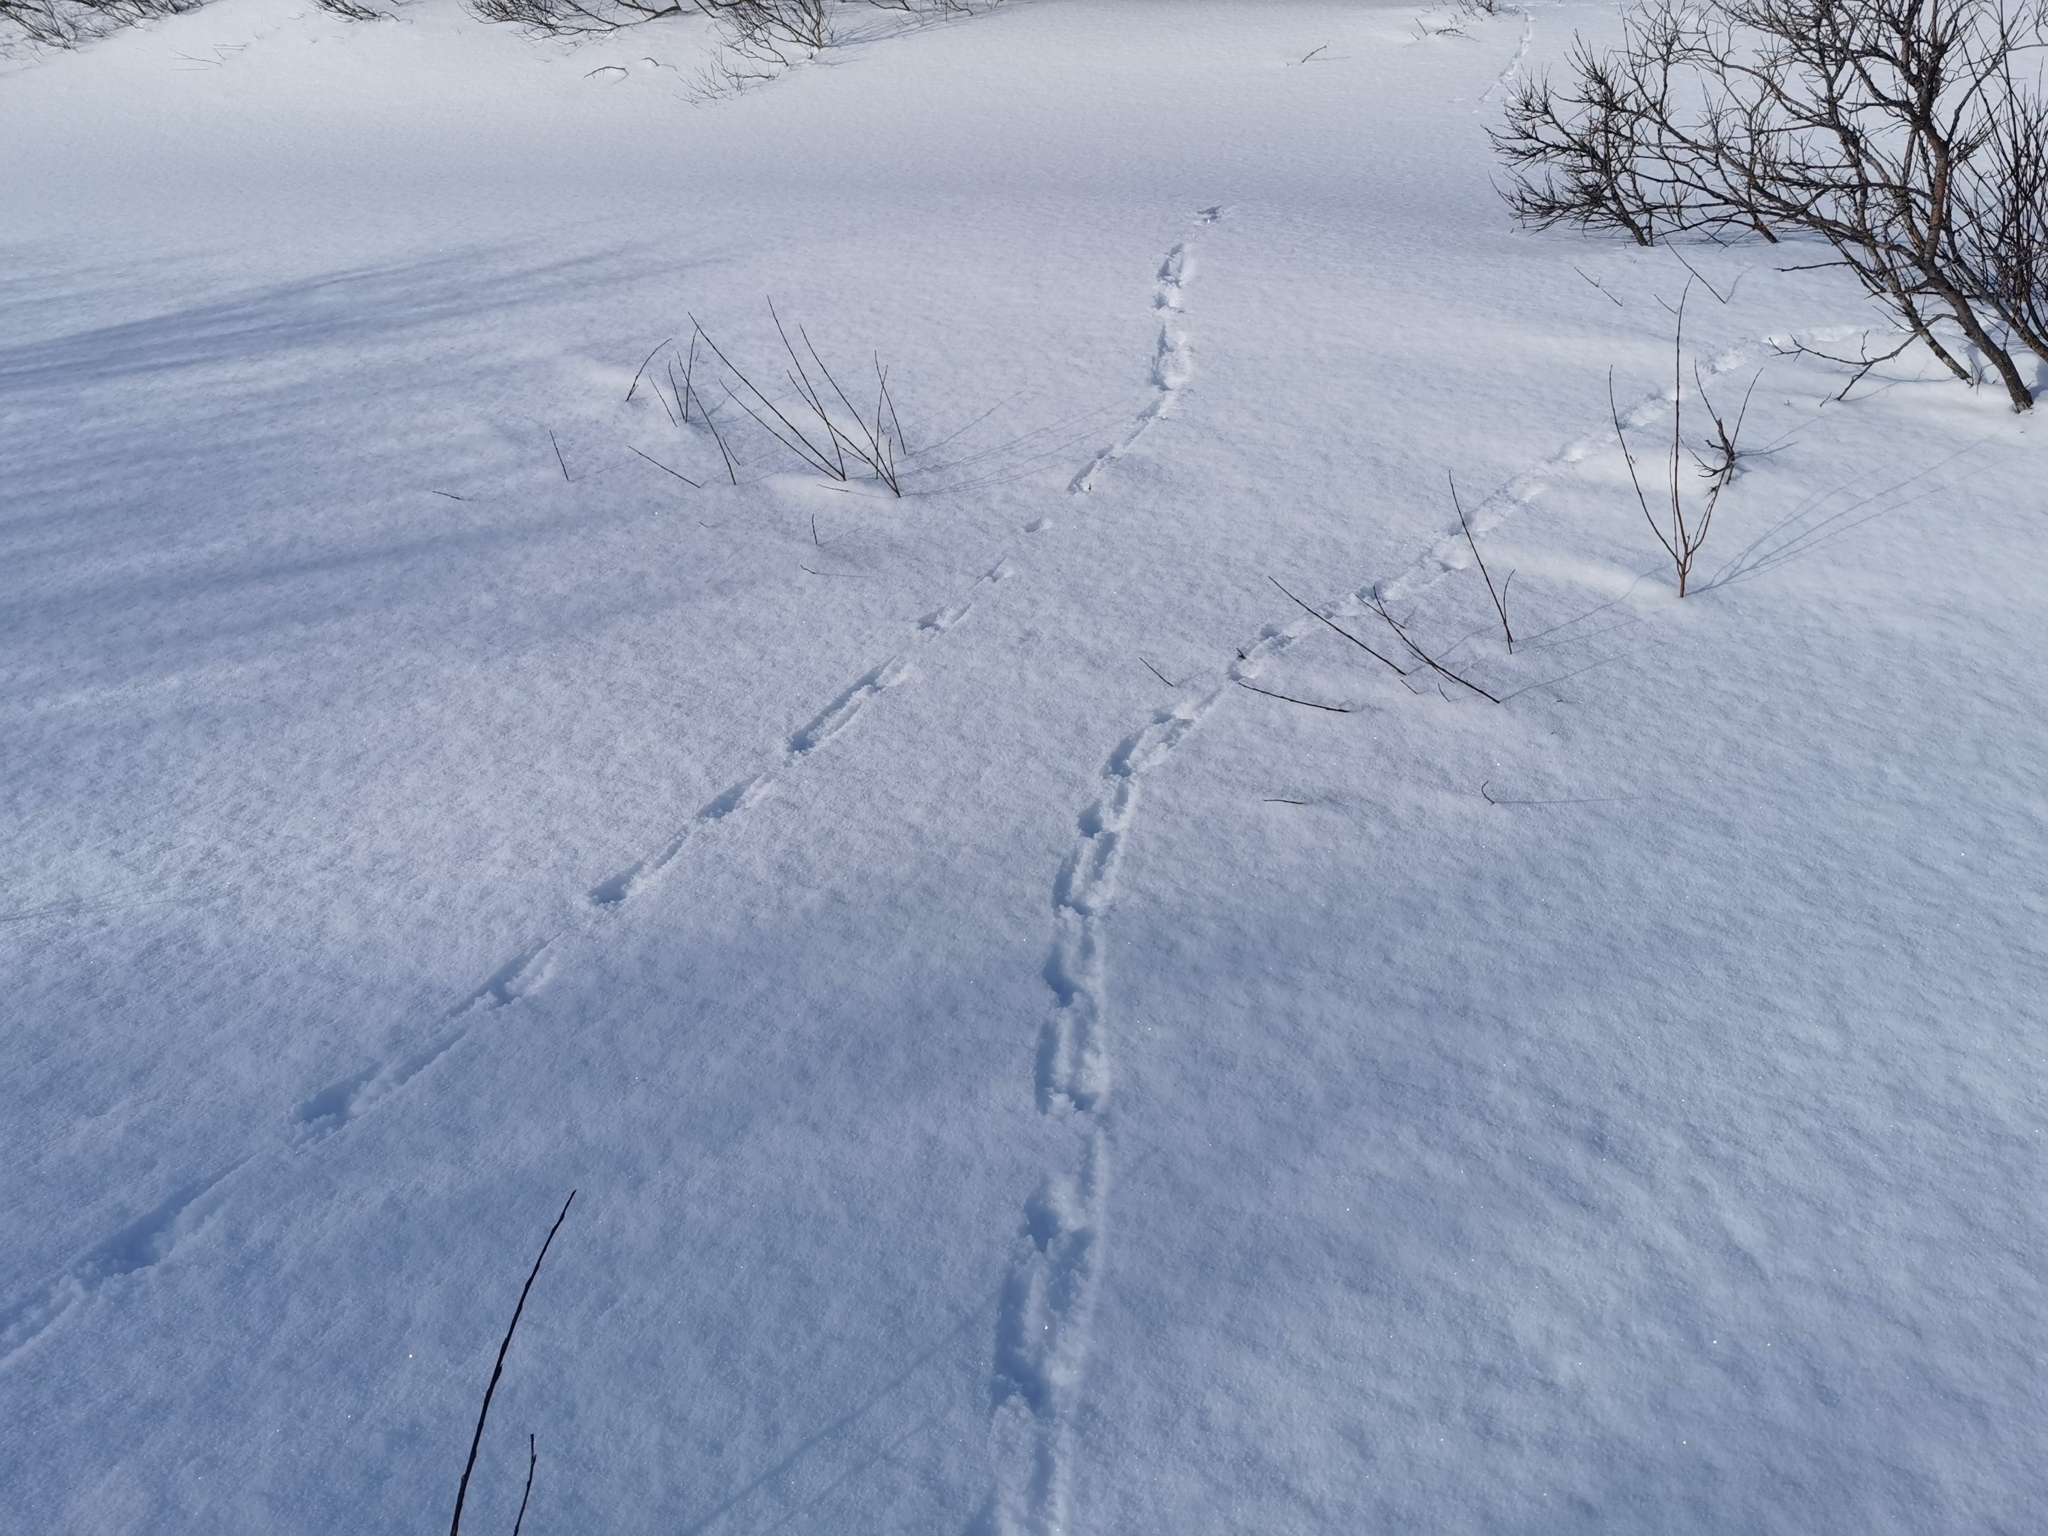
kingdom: Animalia
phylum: Chordata
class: Aves
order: Galliformes
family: Phasianidae
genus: Lagopus
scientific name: Lagopus lagopus
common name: Willow ptarmigan
